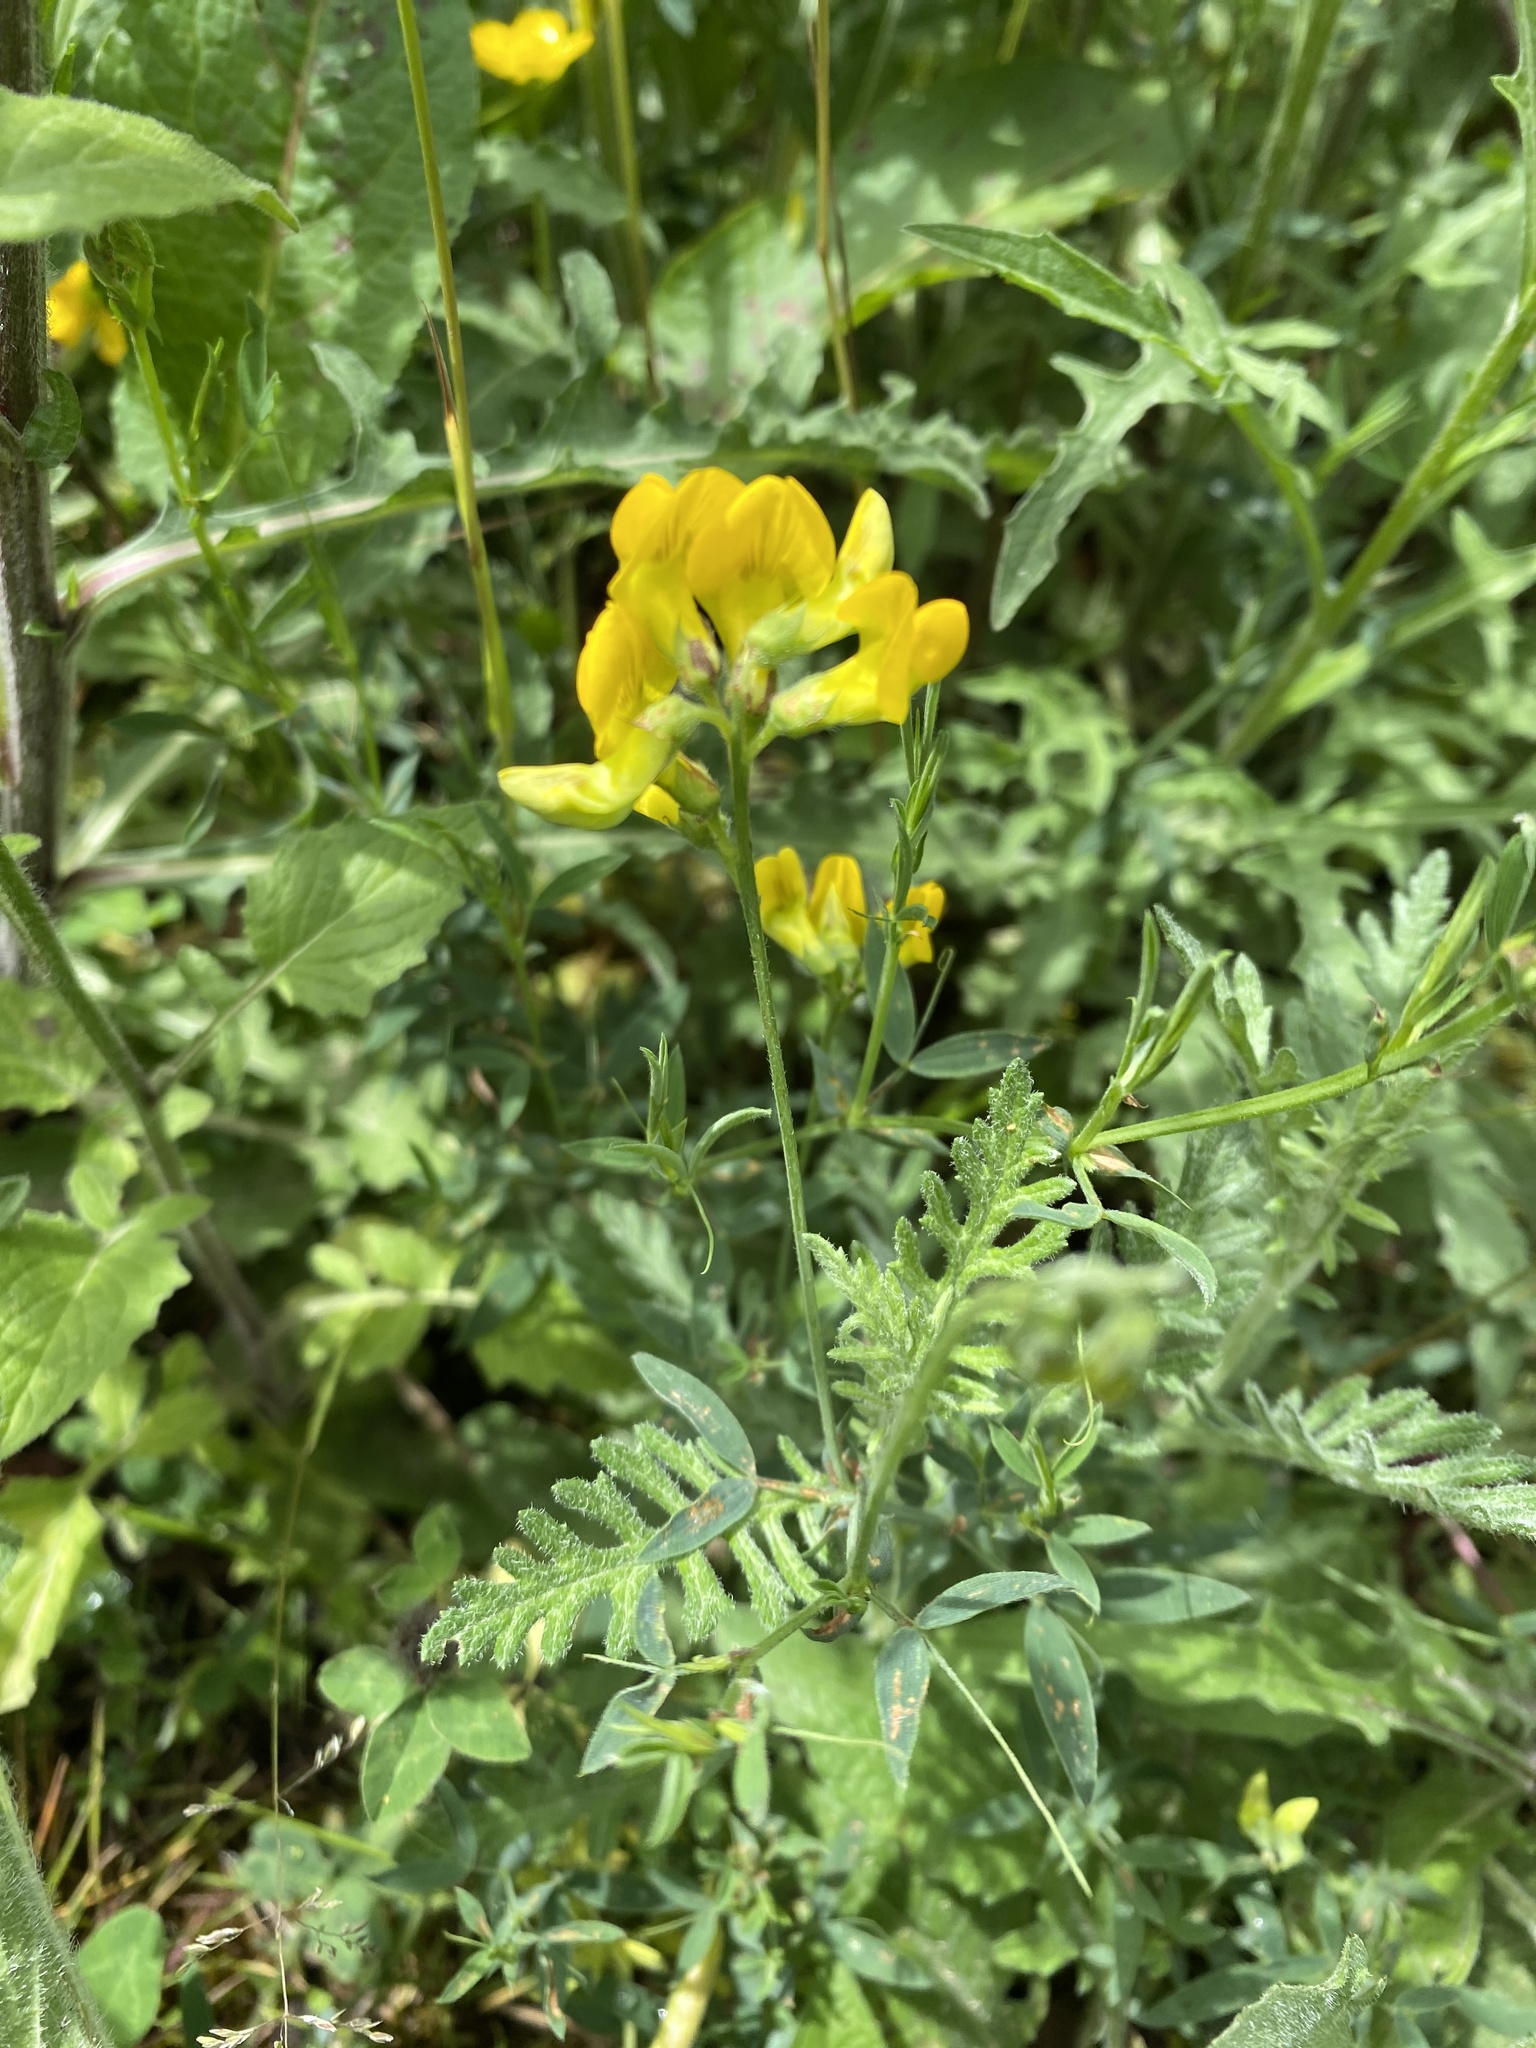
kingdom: Plantae
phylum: Tracheophyta
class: Magnoliopsida
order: Fabales
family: Fabaceae
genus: Lathyrus
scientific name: Lathyrus pratensis
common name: Meadow vetchling
